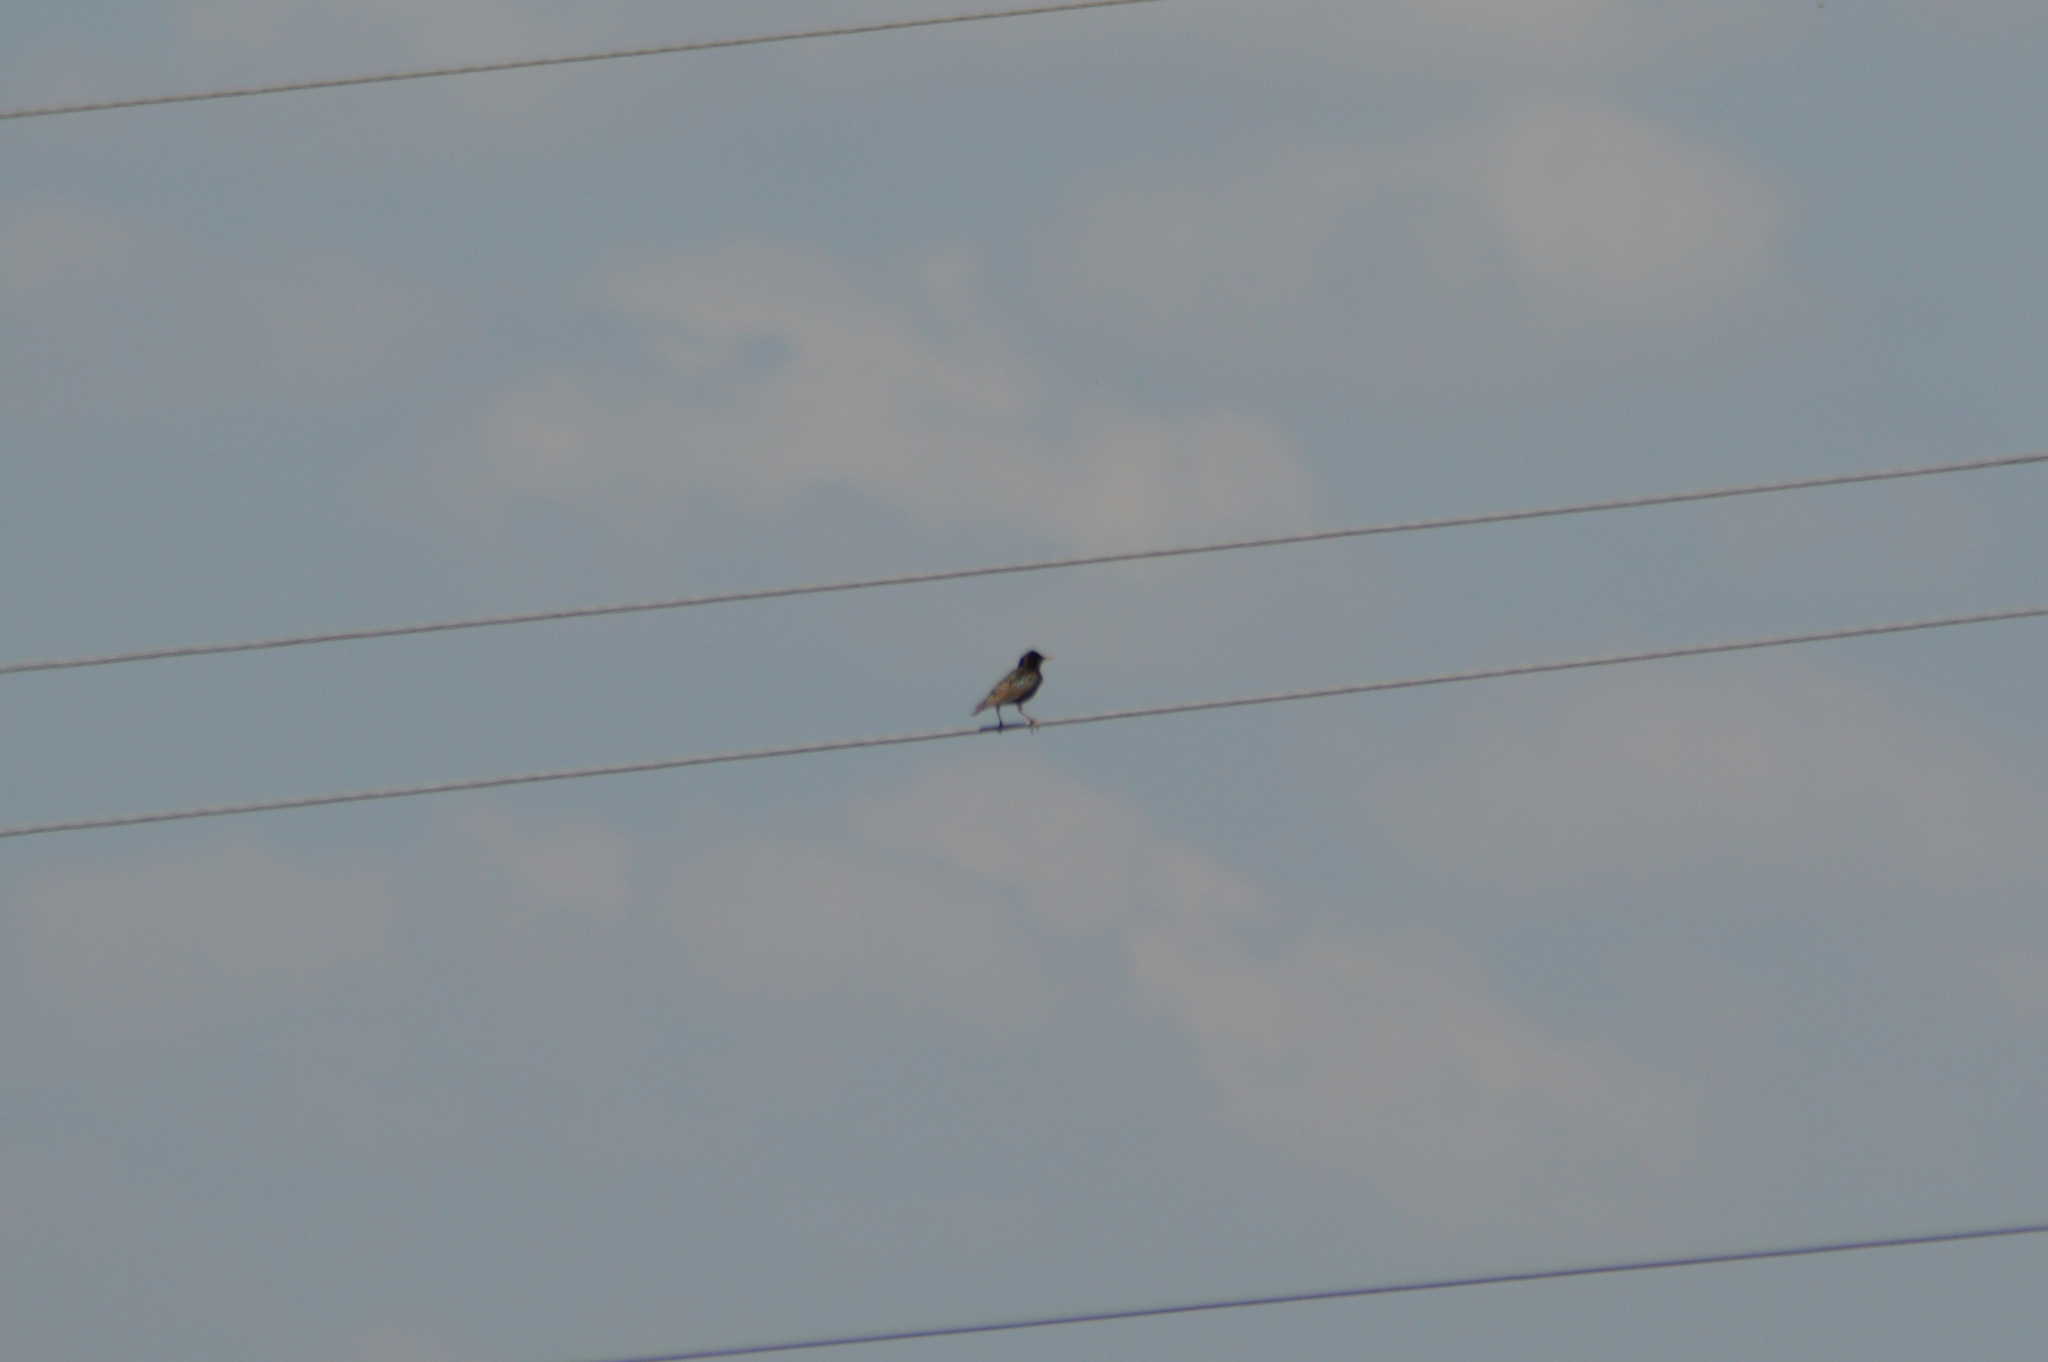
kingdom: Animalia
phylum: Chordata
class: Aves
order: Passeriformes
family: Sturnidae
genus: Sturnus
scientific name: Sturnus vulgaris
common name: Common starling
